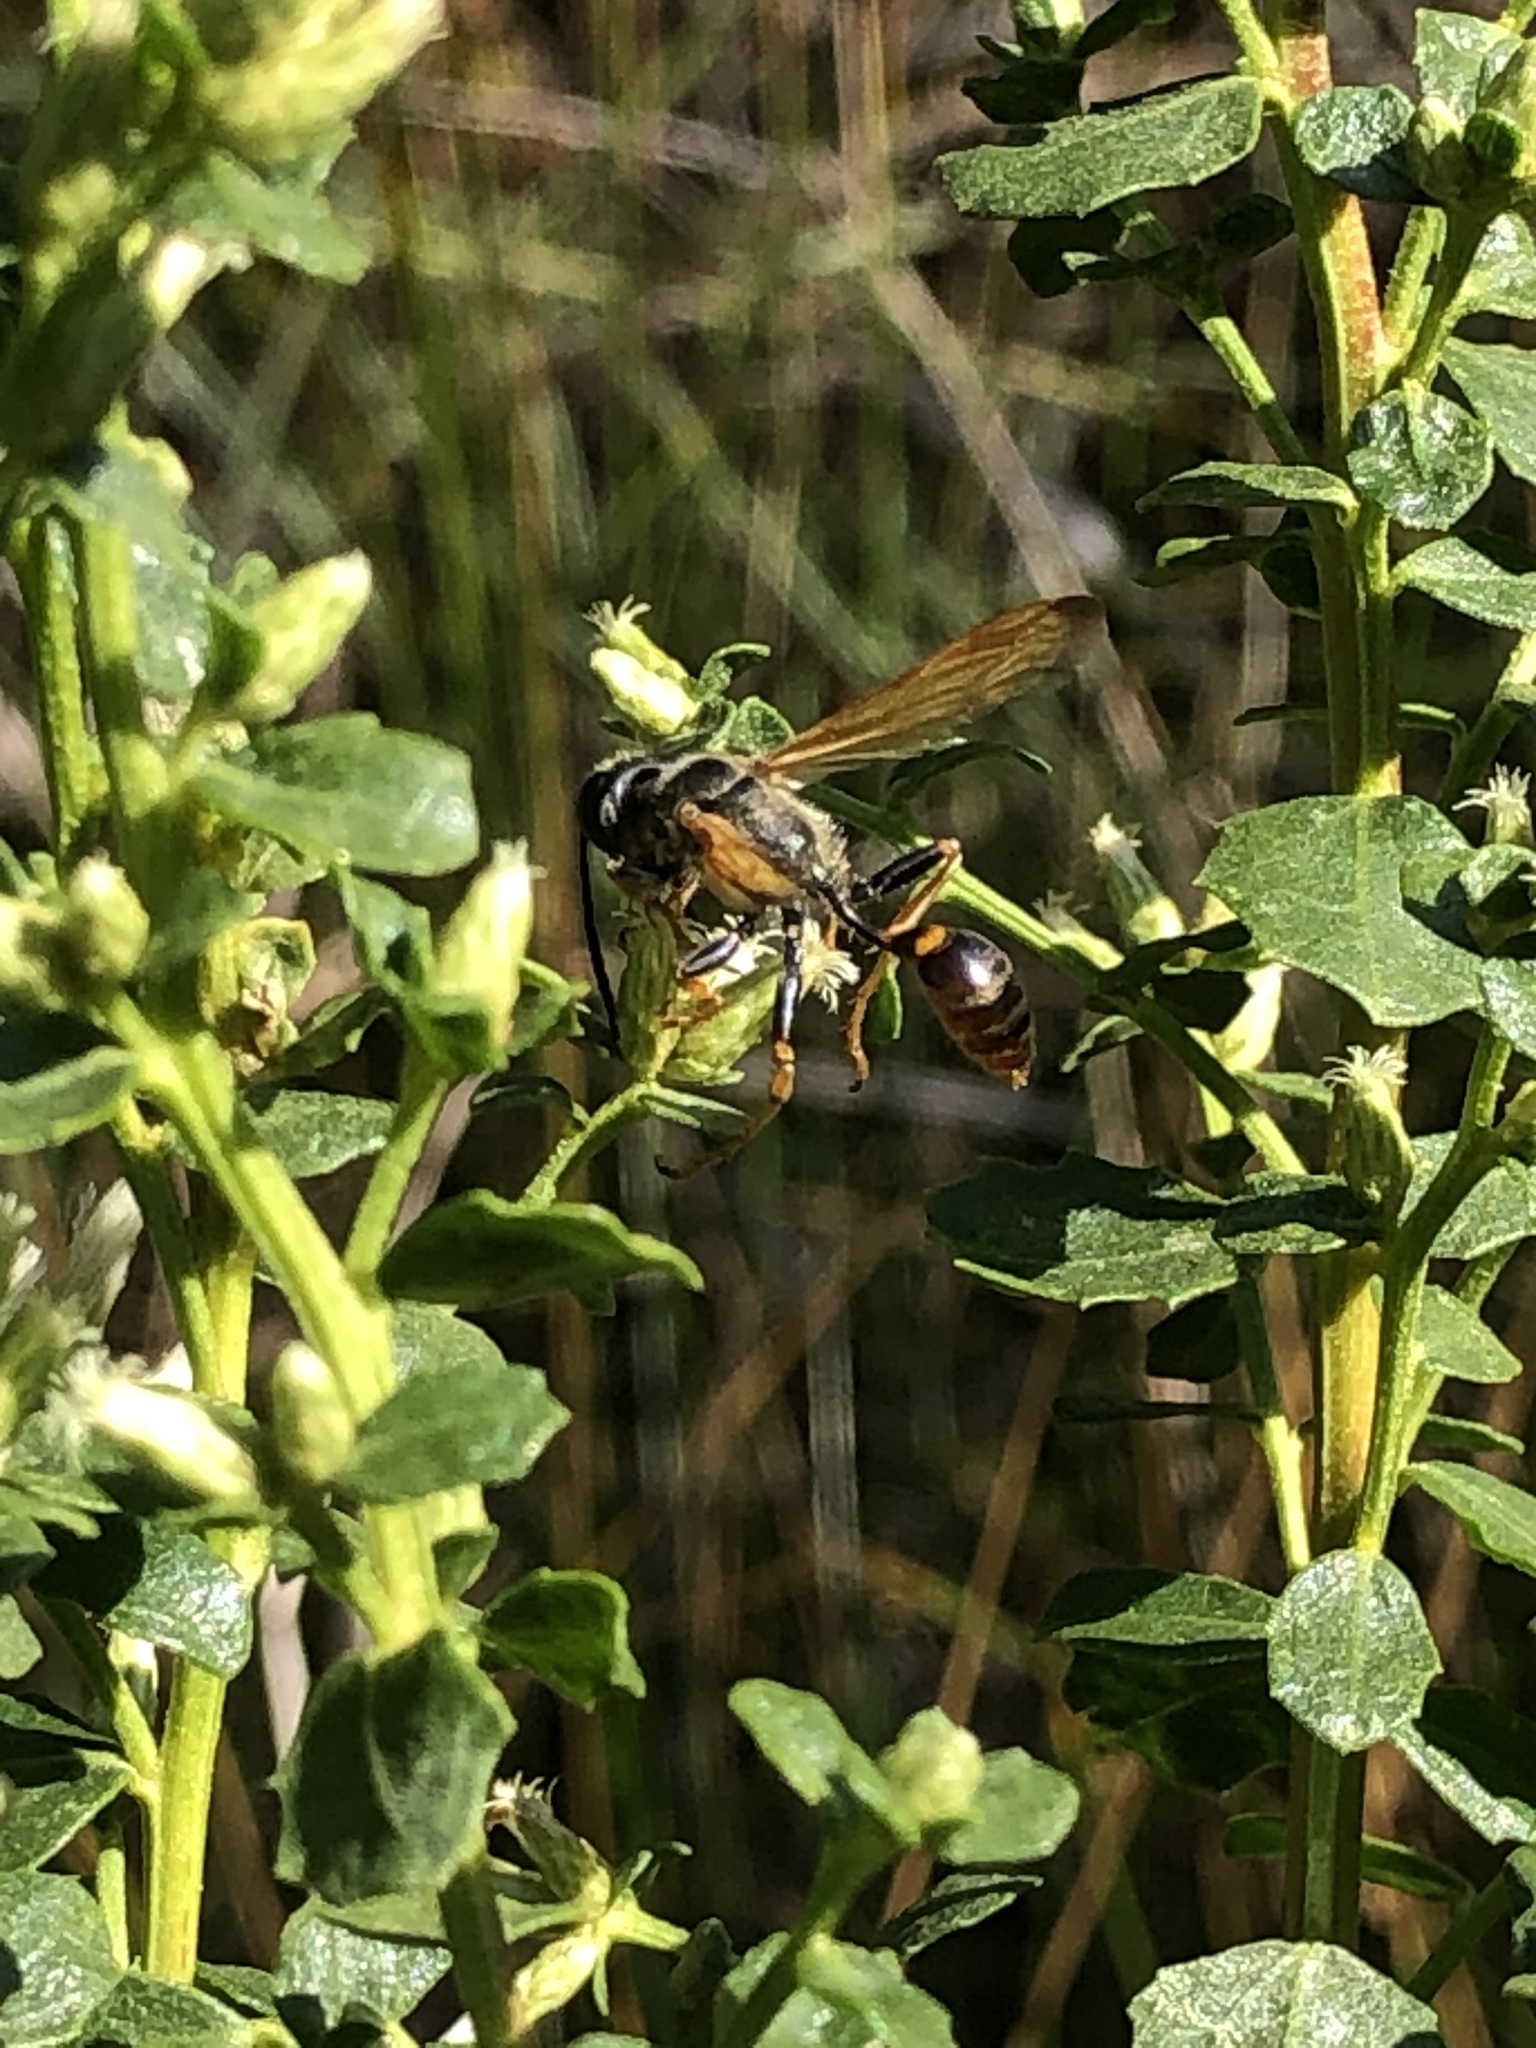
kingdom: Animalia
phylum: Arthropoda
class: Insecta
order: Hymenoptera
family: Sphecidae
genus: Isodontia
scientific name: Isodontia elegans
